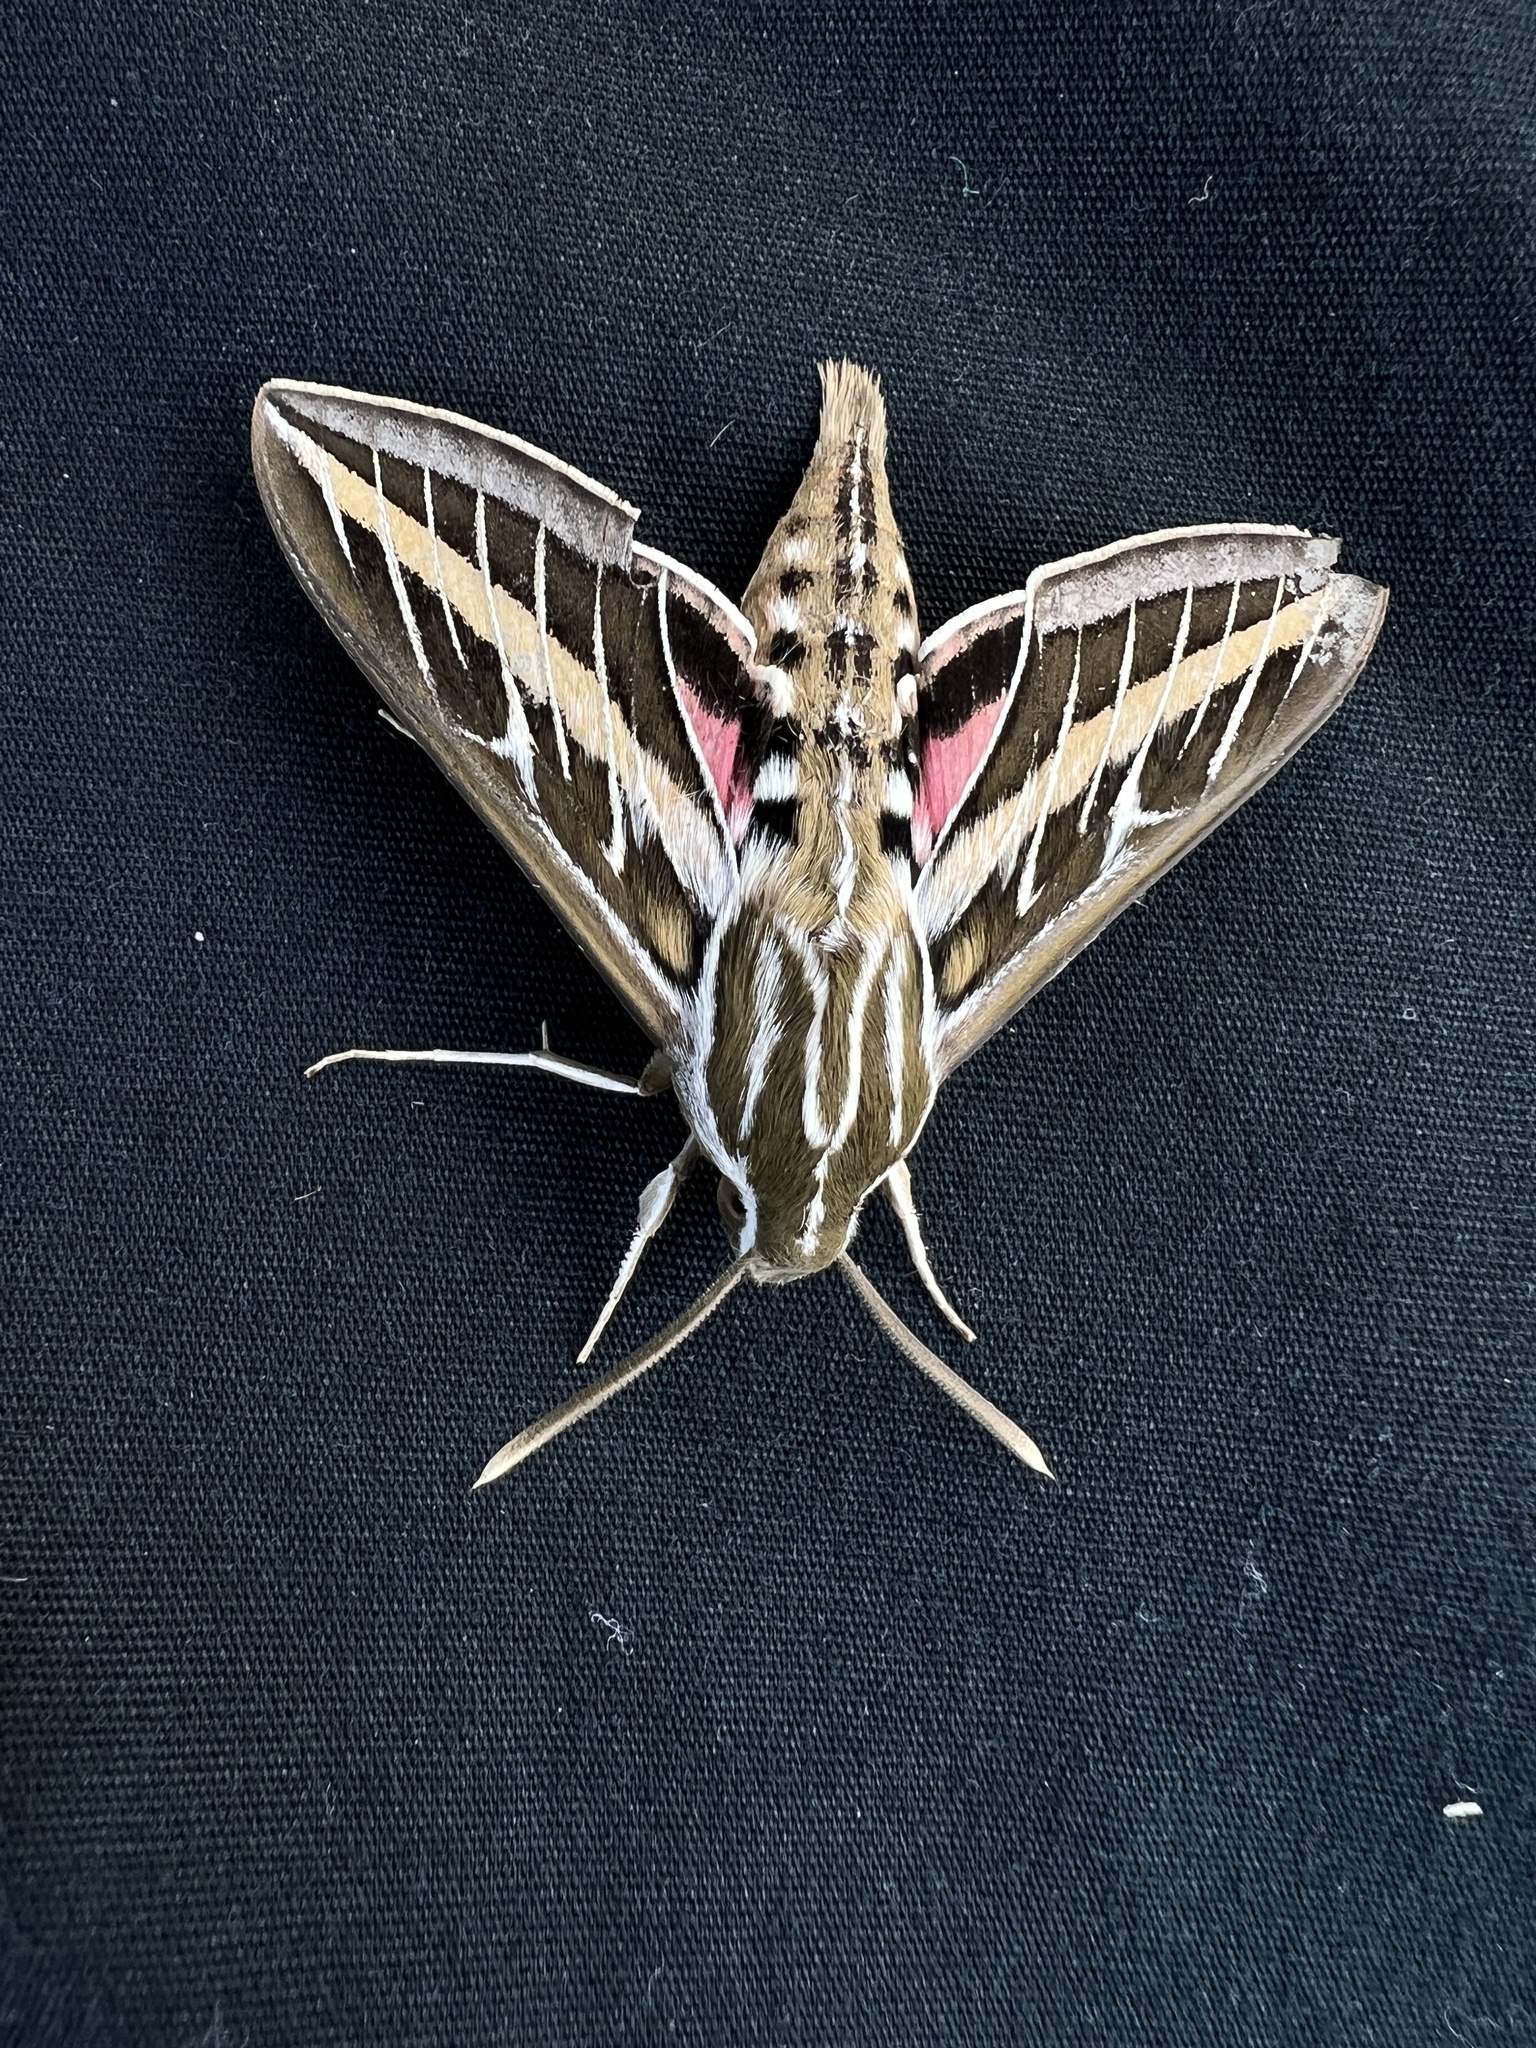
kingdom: Animalia
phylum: Arthropoda
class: Insecta
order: Lepidoptera
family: Sphingidae
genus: Hyles
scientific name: Hyles lineata
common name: White-lined sphinx
